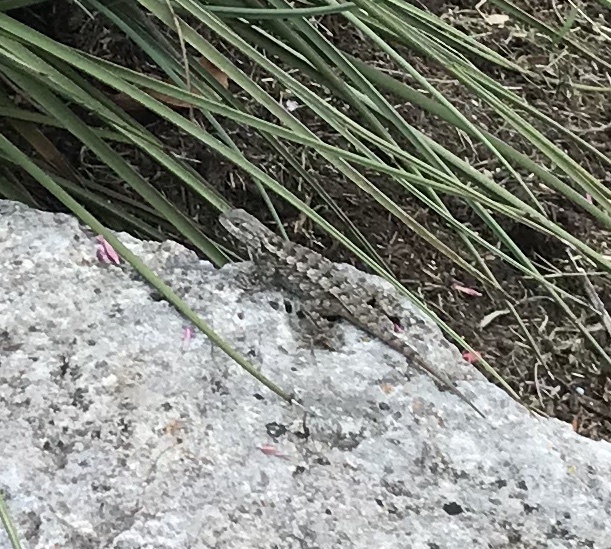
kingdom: Animalia
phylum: Chordata
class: Squamata
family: Phrynosomatidae
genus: Sceloporus
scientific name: Sceloporus olivaceus
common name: Texas spiny lizard
